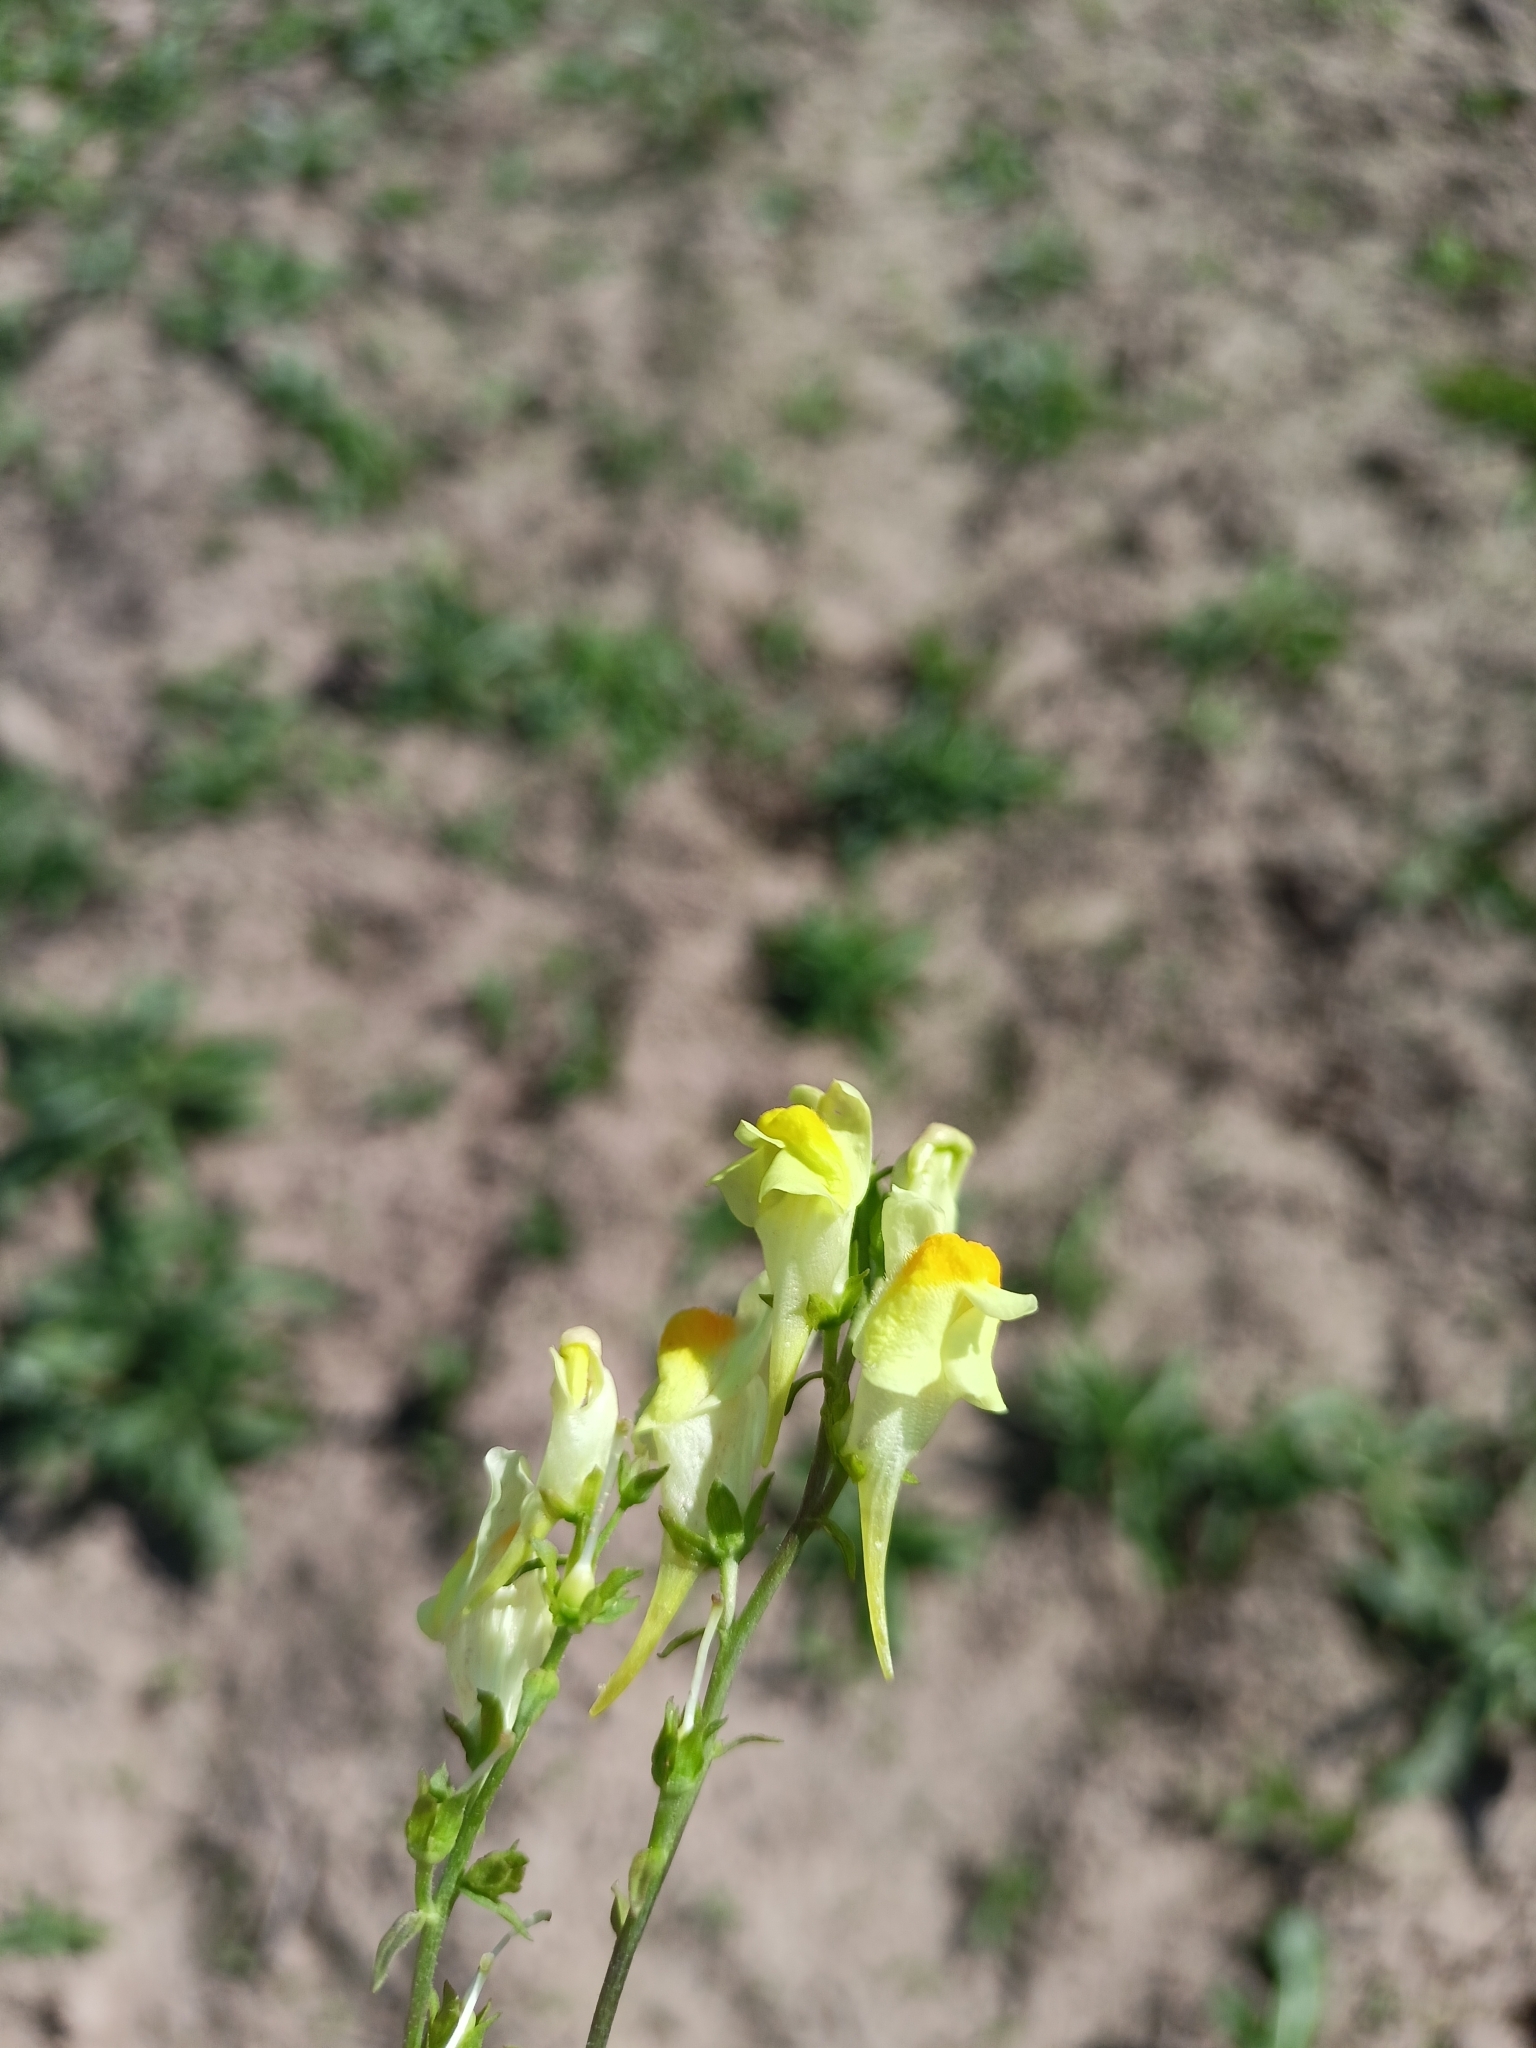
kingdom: Plantae
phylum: Tracheophyta
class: Magnoliopsida
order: Lamiales
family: Plantaginaceae
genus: Linaria
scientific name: Linaria vulgaris
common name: Butter and eggs
